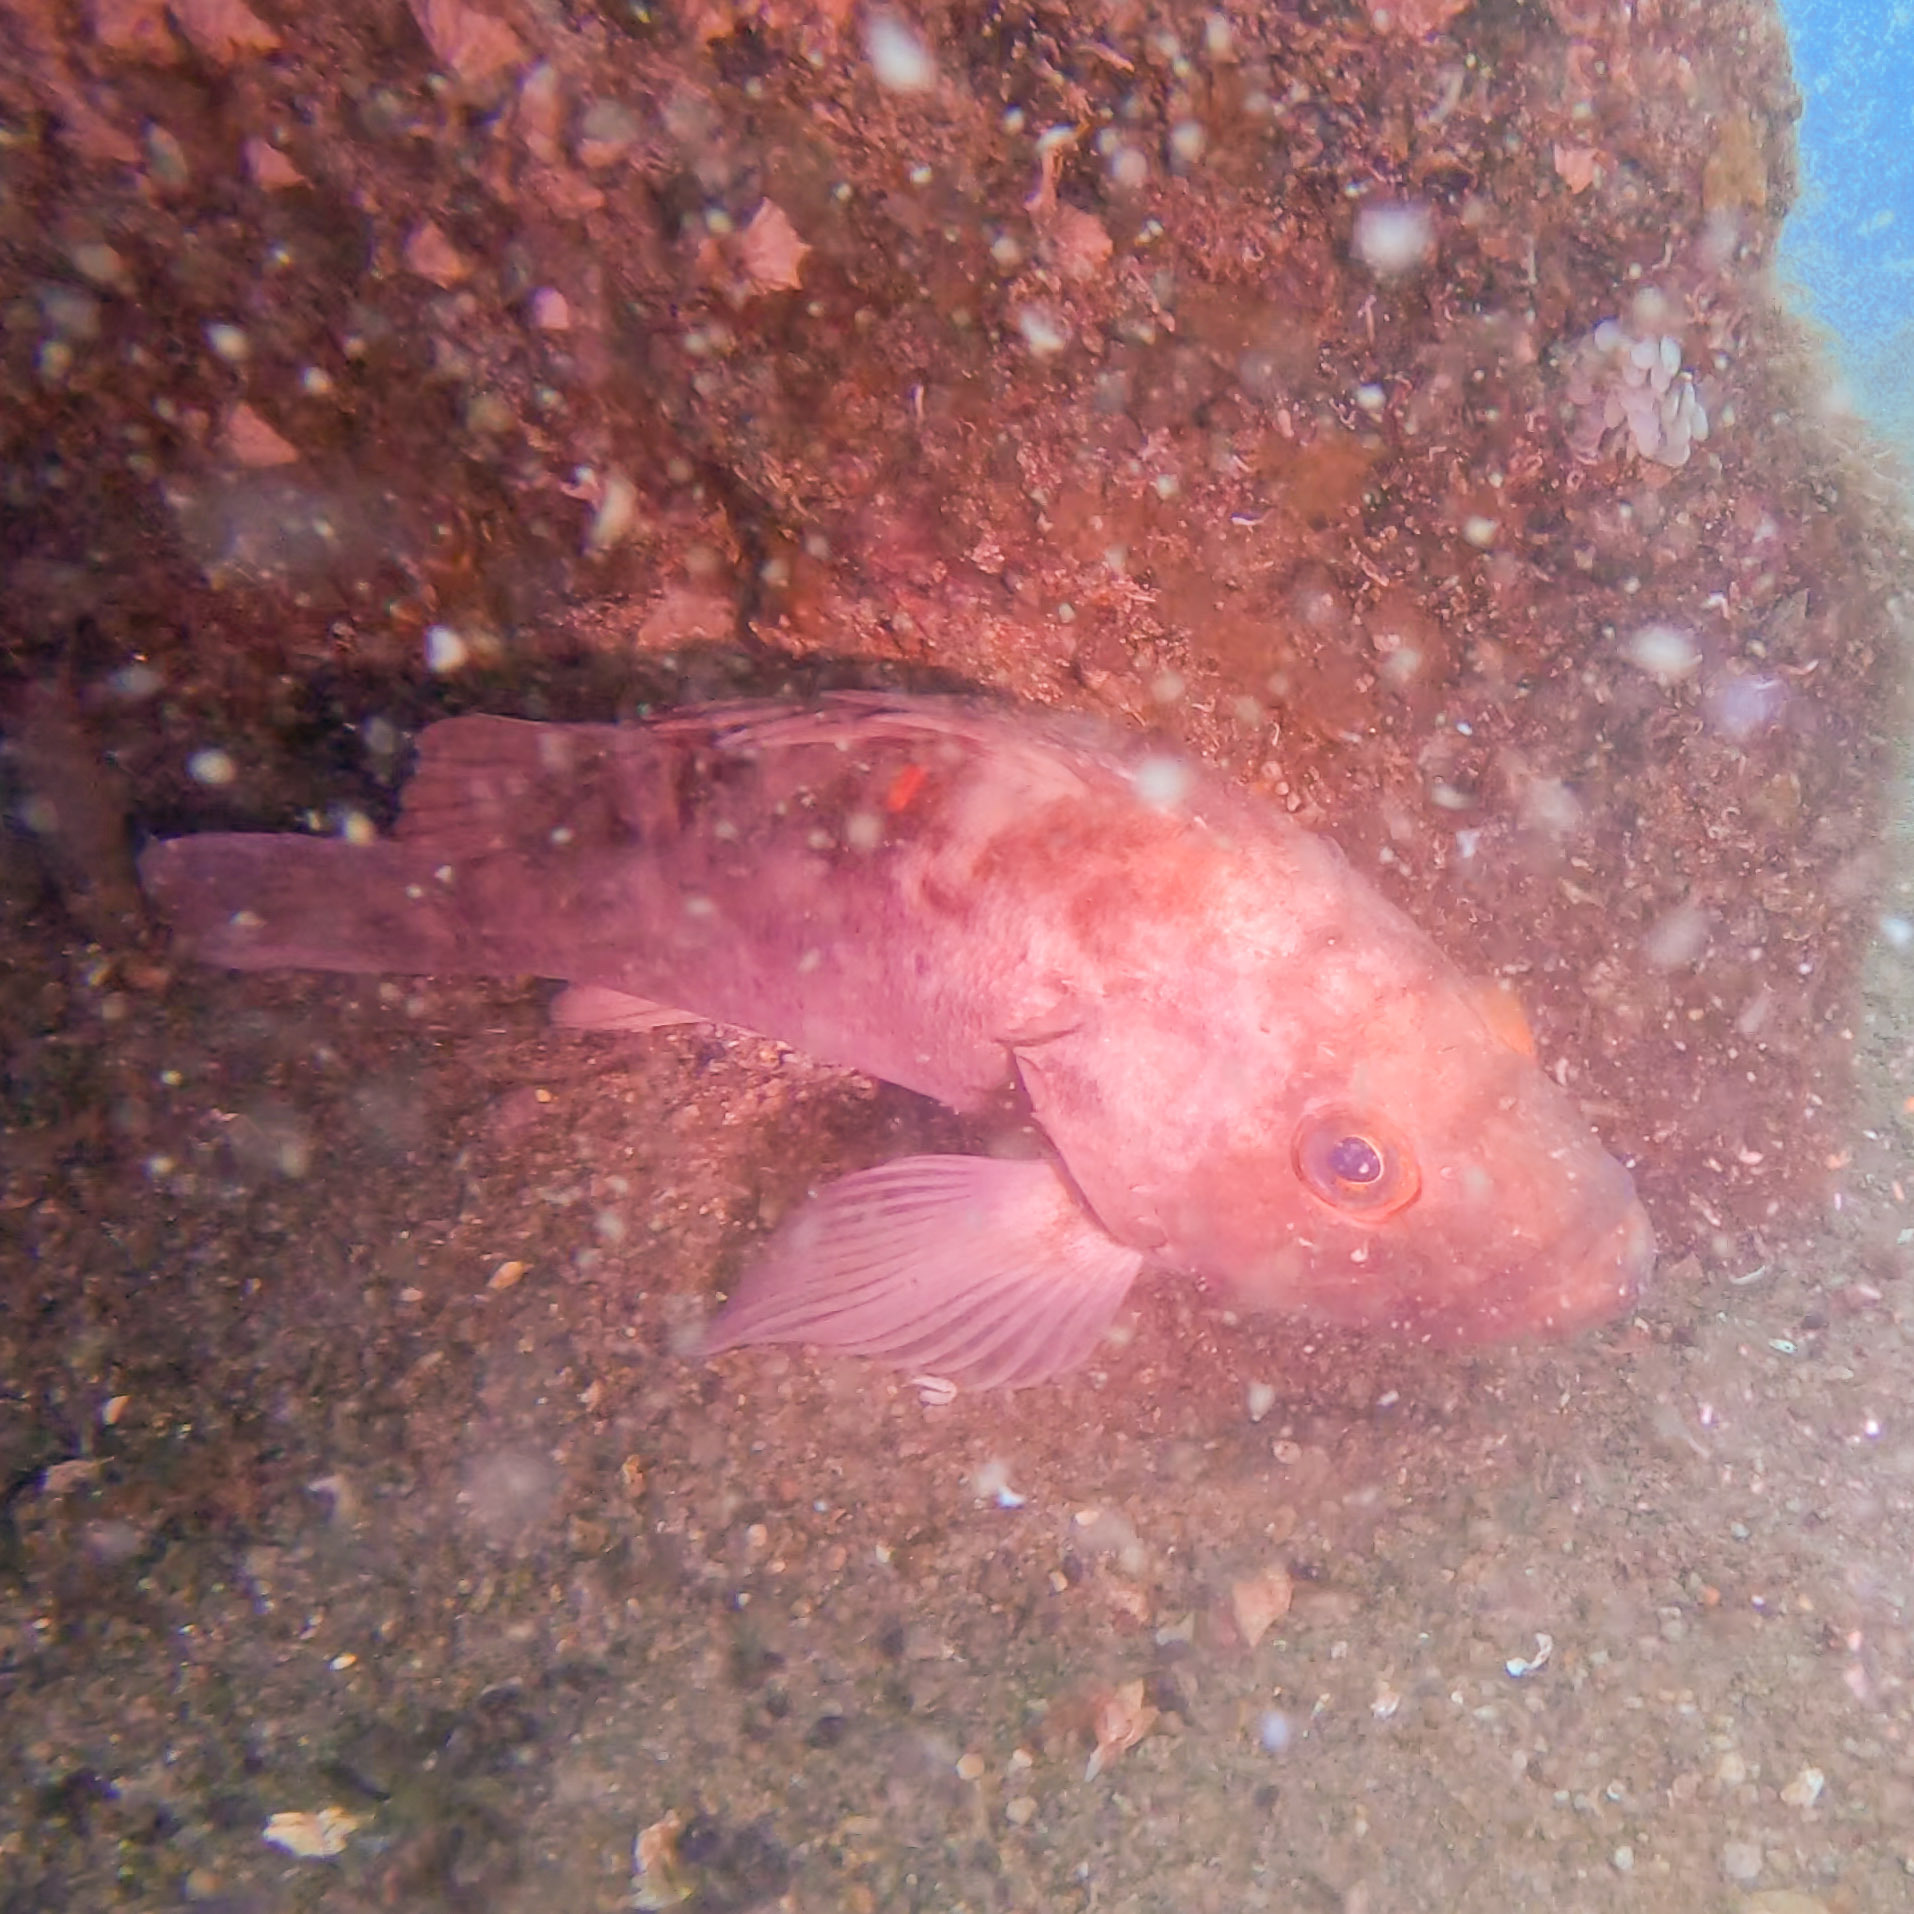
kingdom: Animalia
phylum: Chordata
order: Scorpaeniformes
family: Sebastidae
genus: Sebastes
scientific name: Sebastes auriculatus
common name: Brown rockfish
